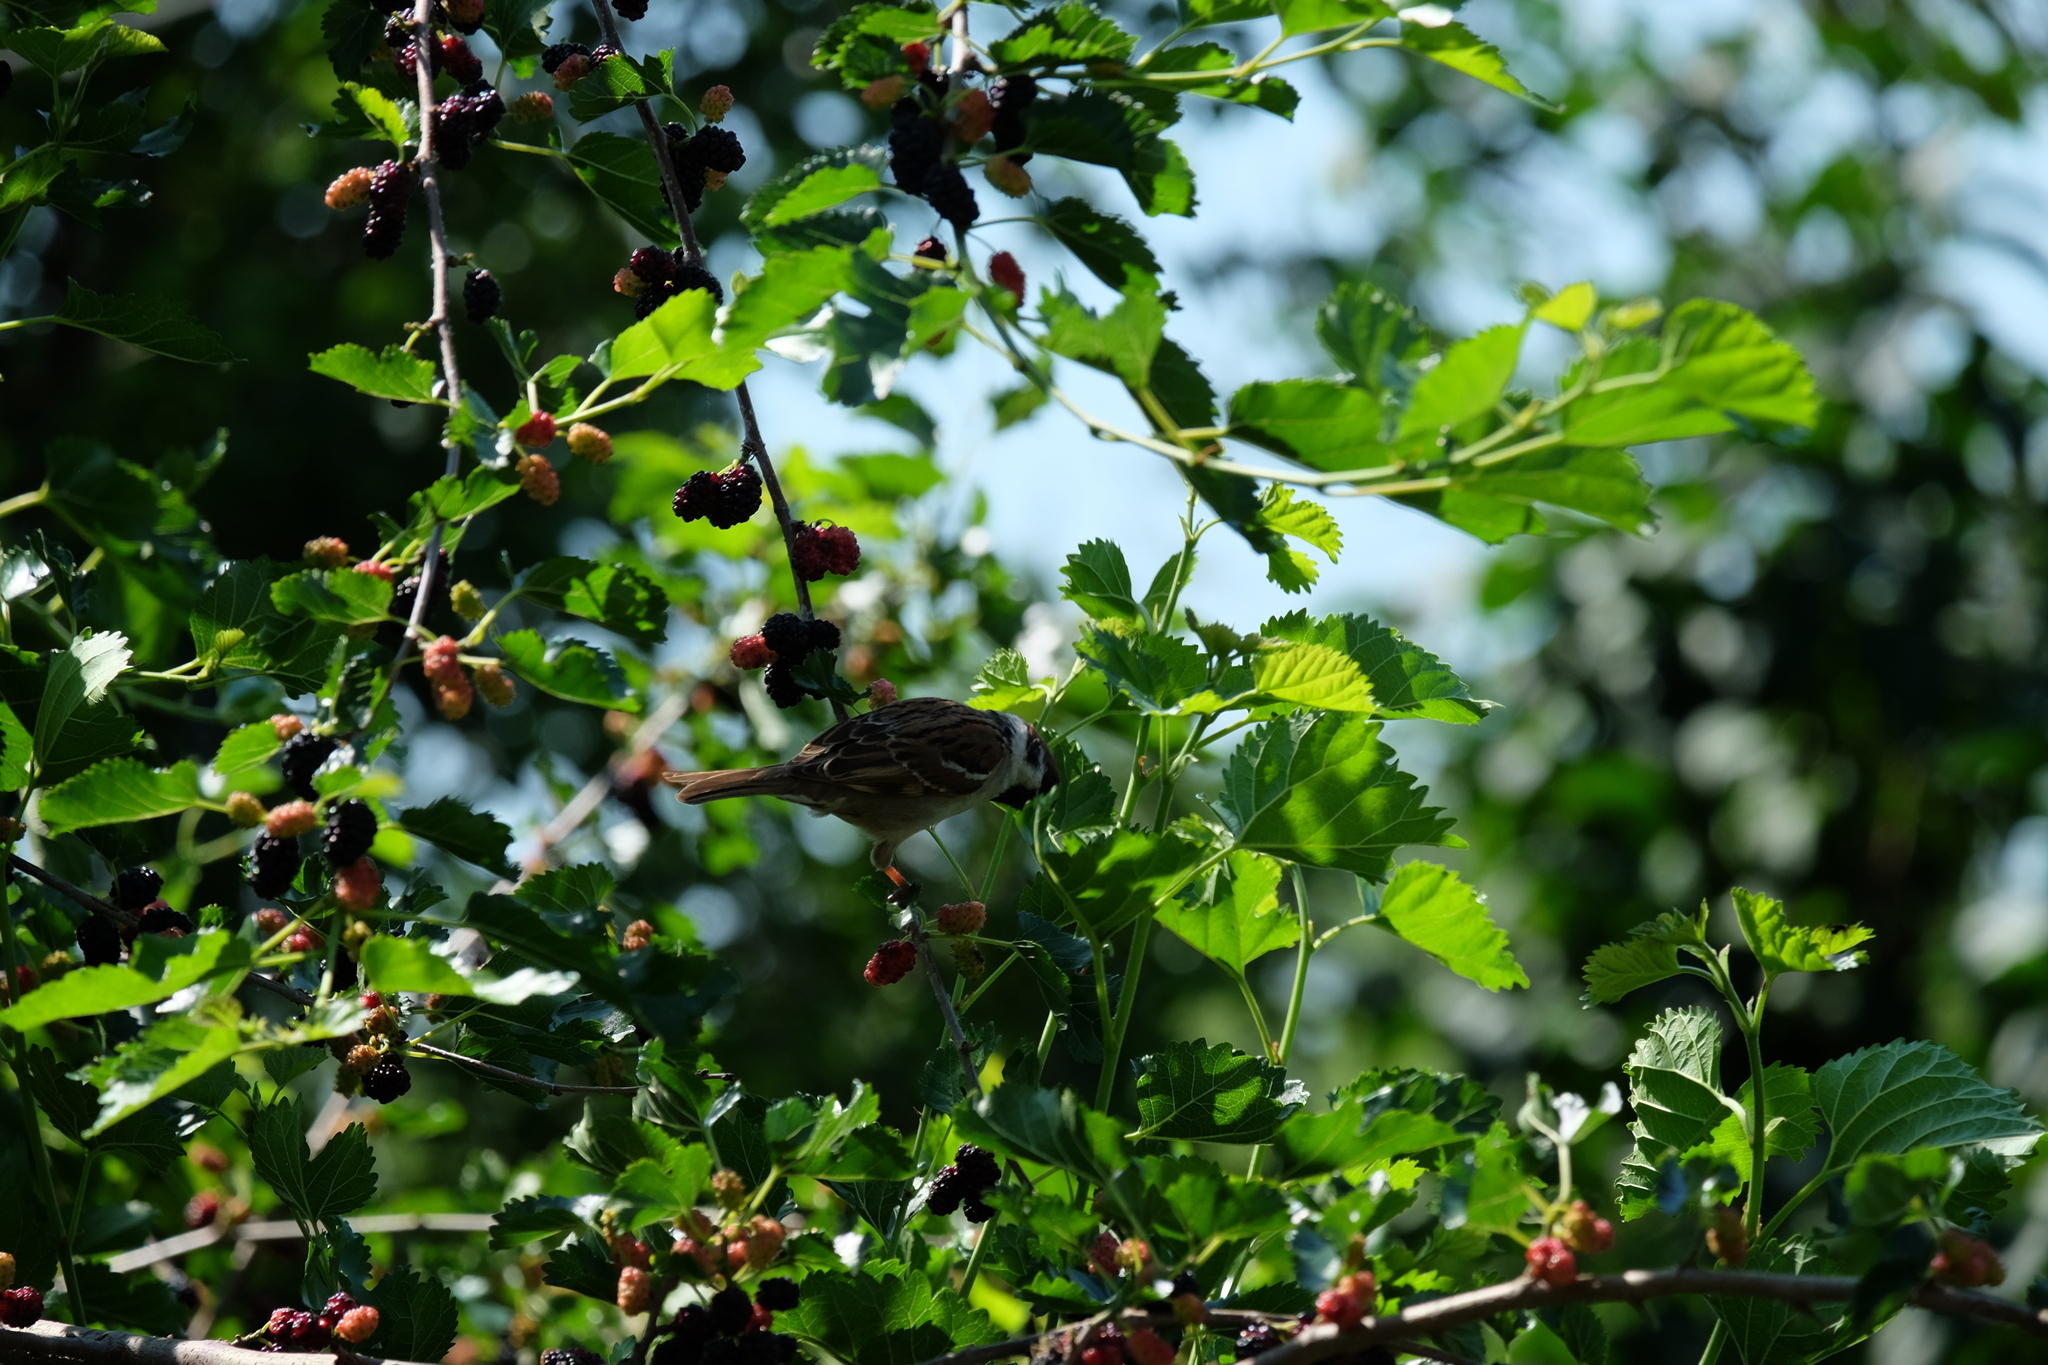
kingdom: Animalia
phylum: Chordata
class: Aves
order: Passeriformes
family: Passeridae
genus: Passer
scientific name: Passer montanus
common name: Eurasian tree sparrow
